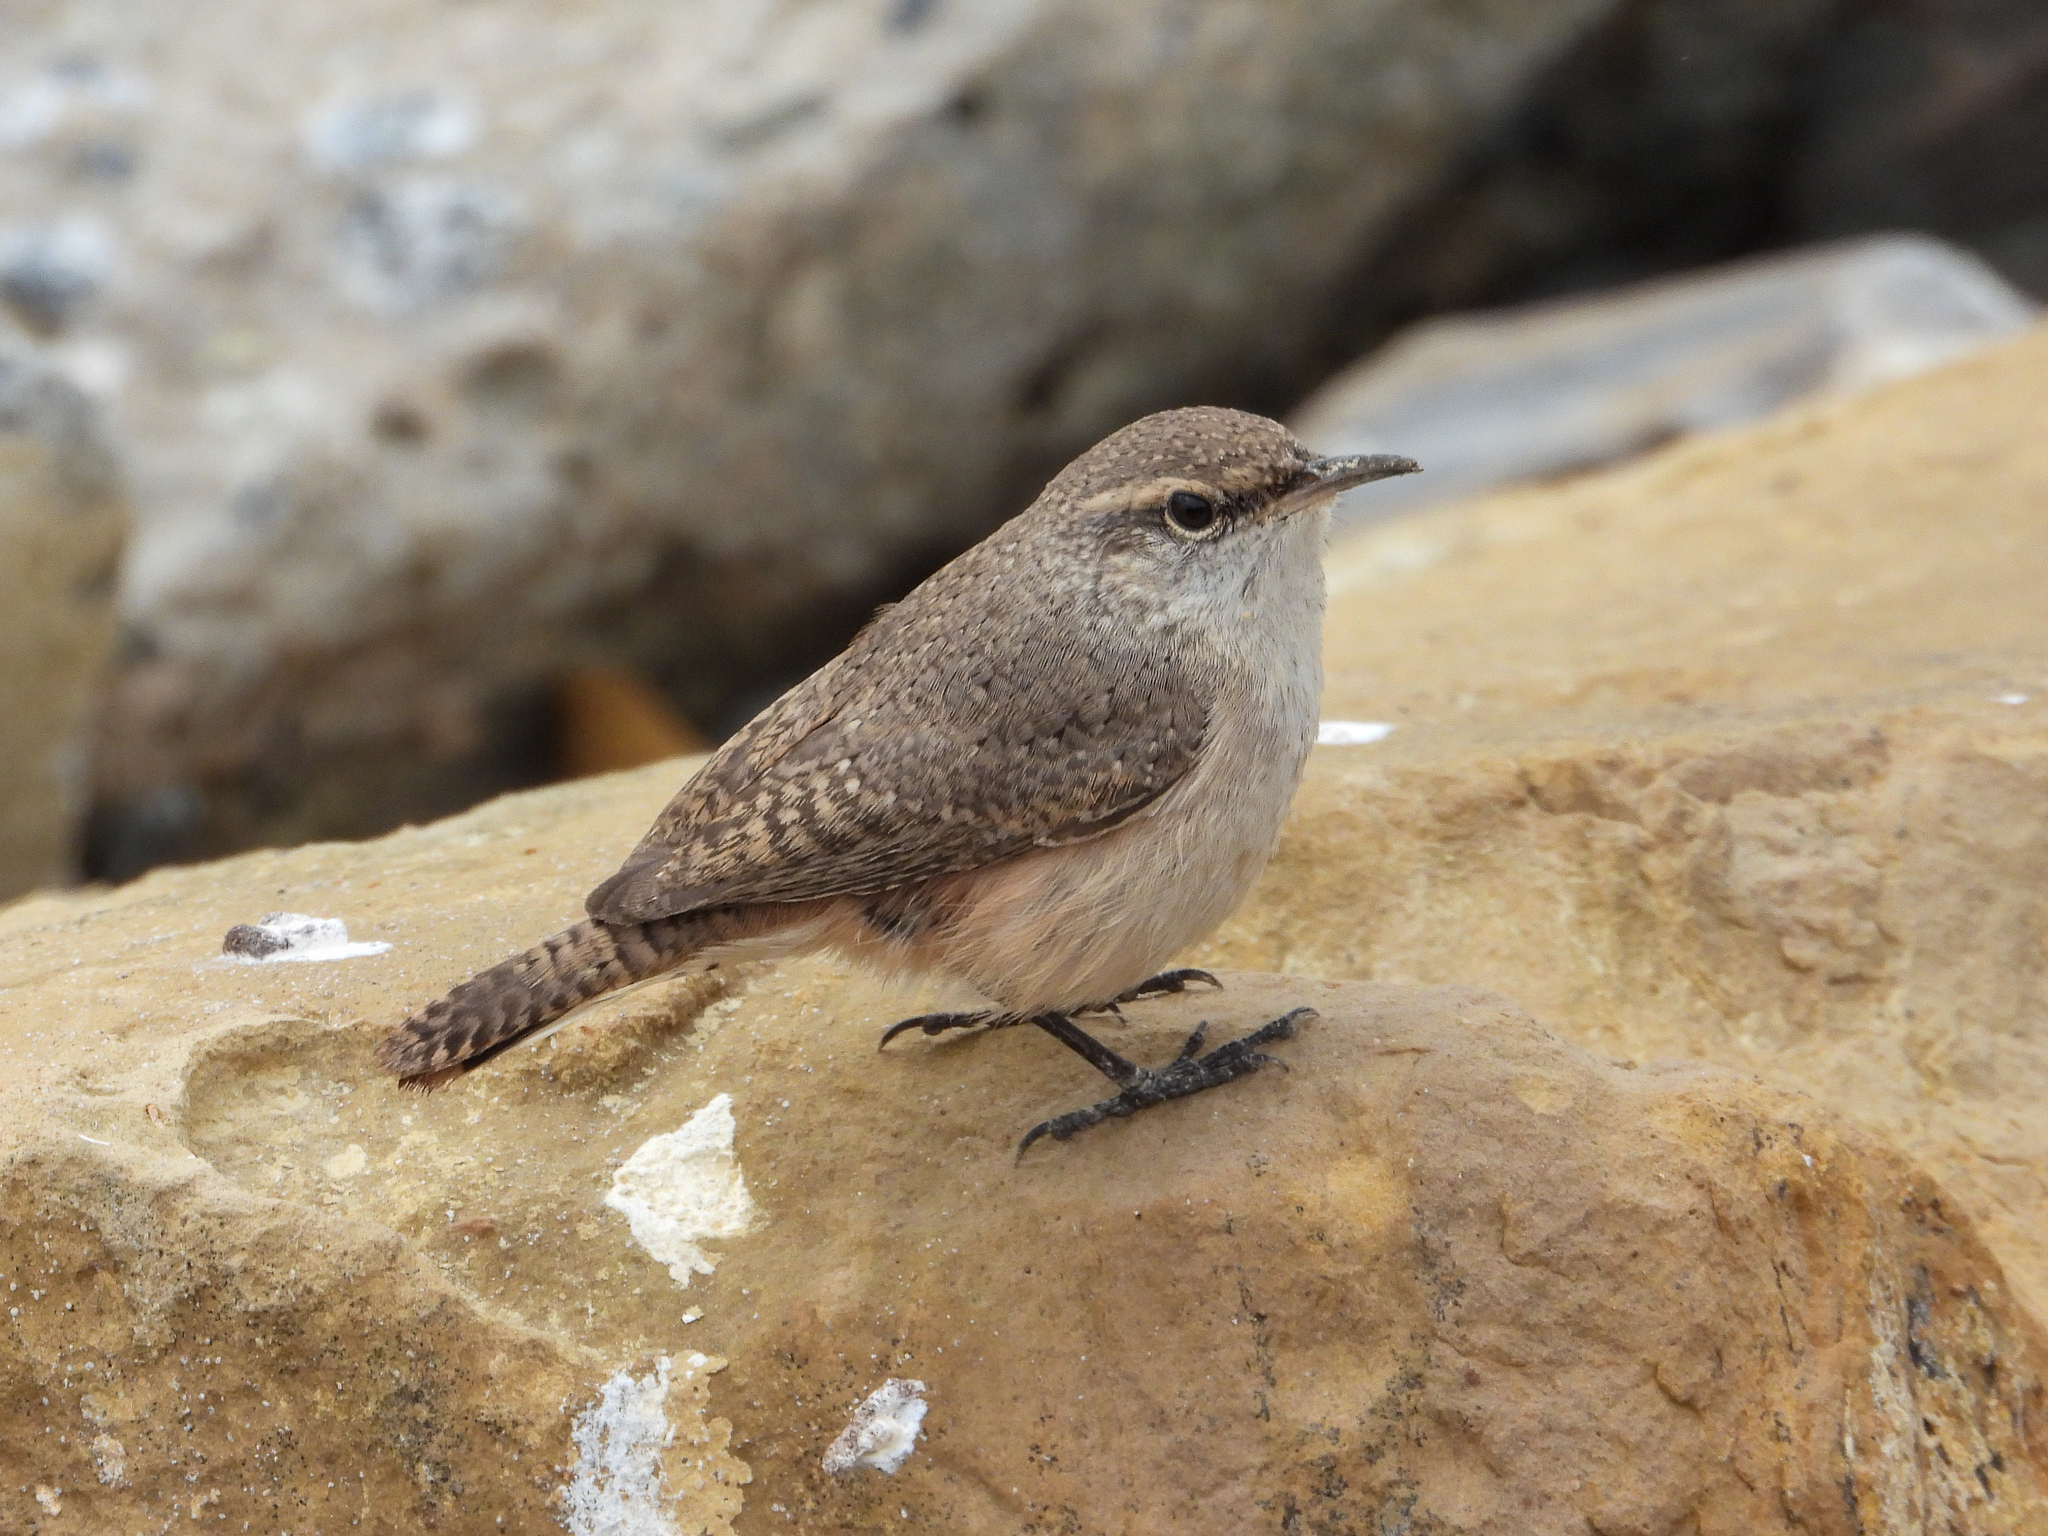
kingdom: Animalia
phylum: Chordata
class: Aves
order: Passeriformes
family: Troglodytidae
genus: Salpinctes
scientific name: Salpinctes obsoletus
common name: Rock wren
